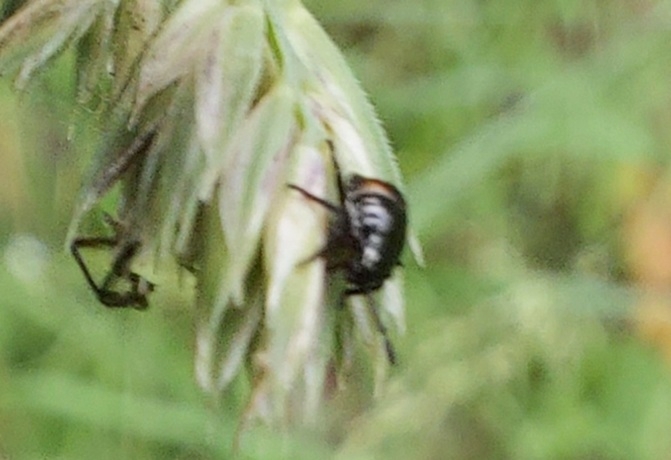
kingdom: Animalia
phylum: Arthropoda
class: Insecta
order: Hemiptera
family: Pentatomidae
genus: Eurydema
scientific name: Eurydema oleracea
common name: Cabbage bug
